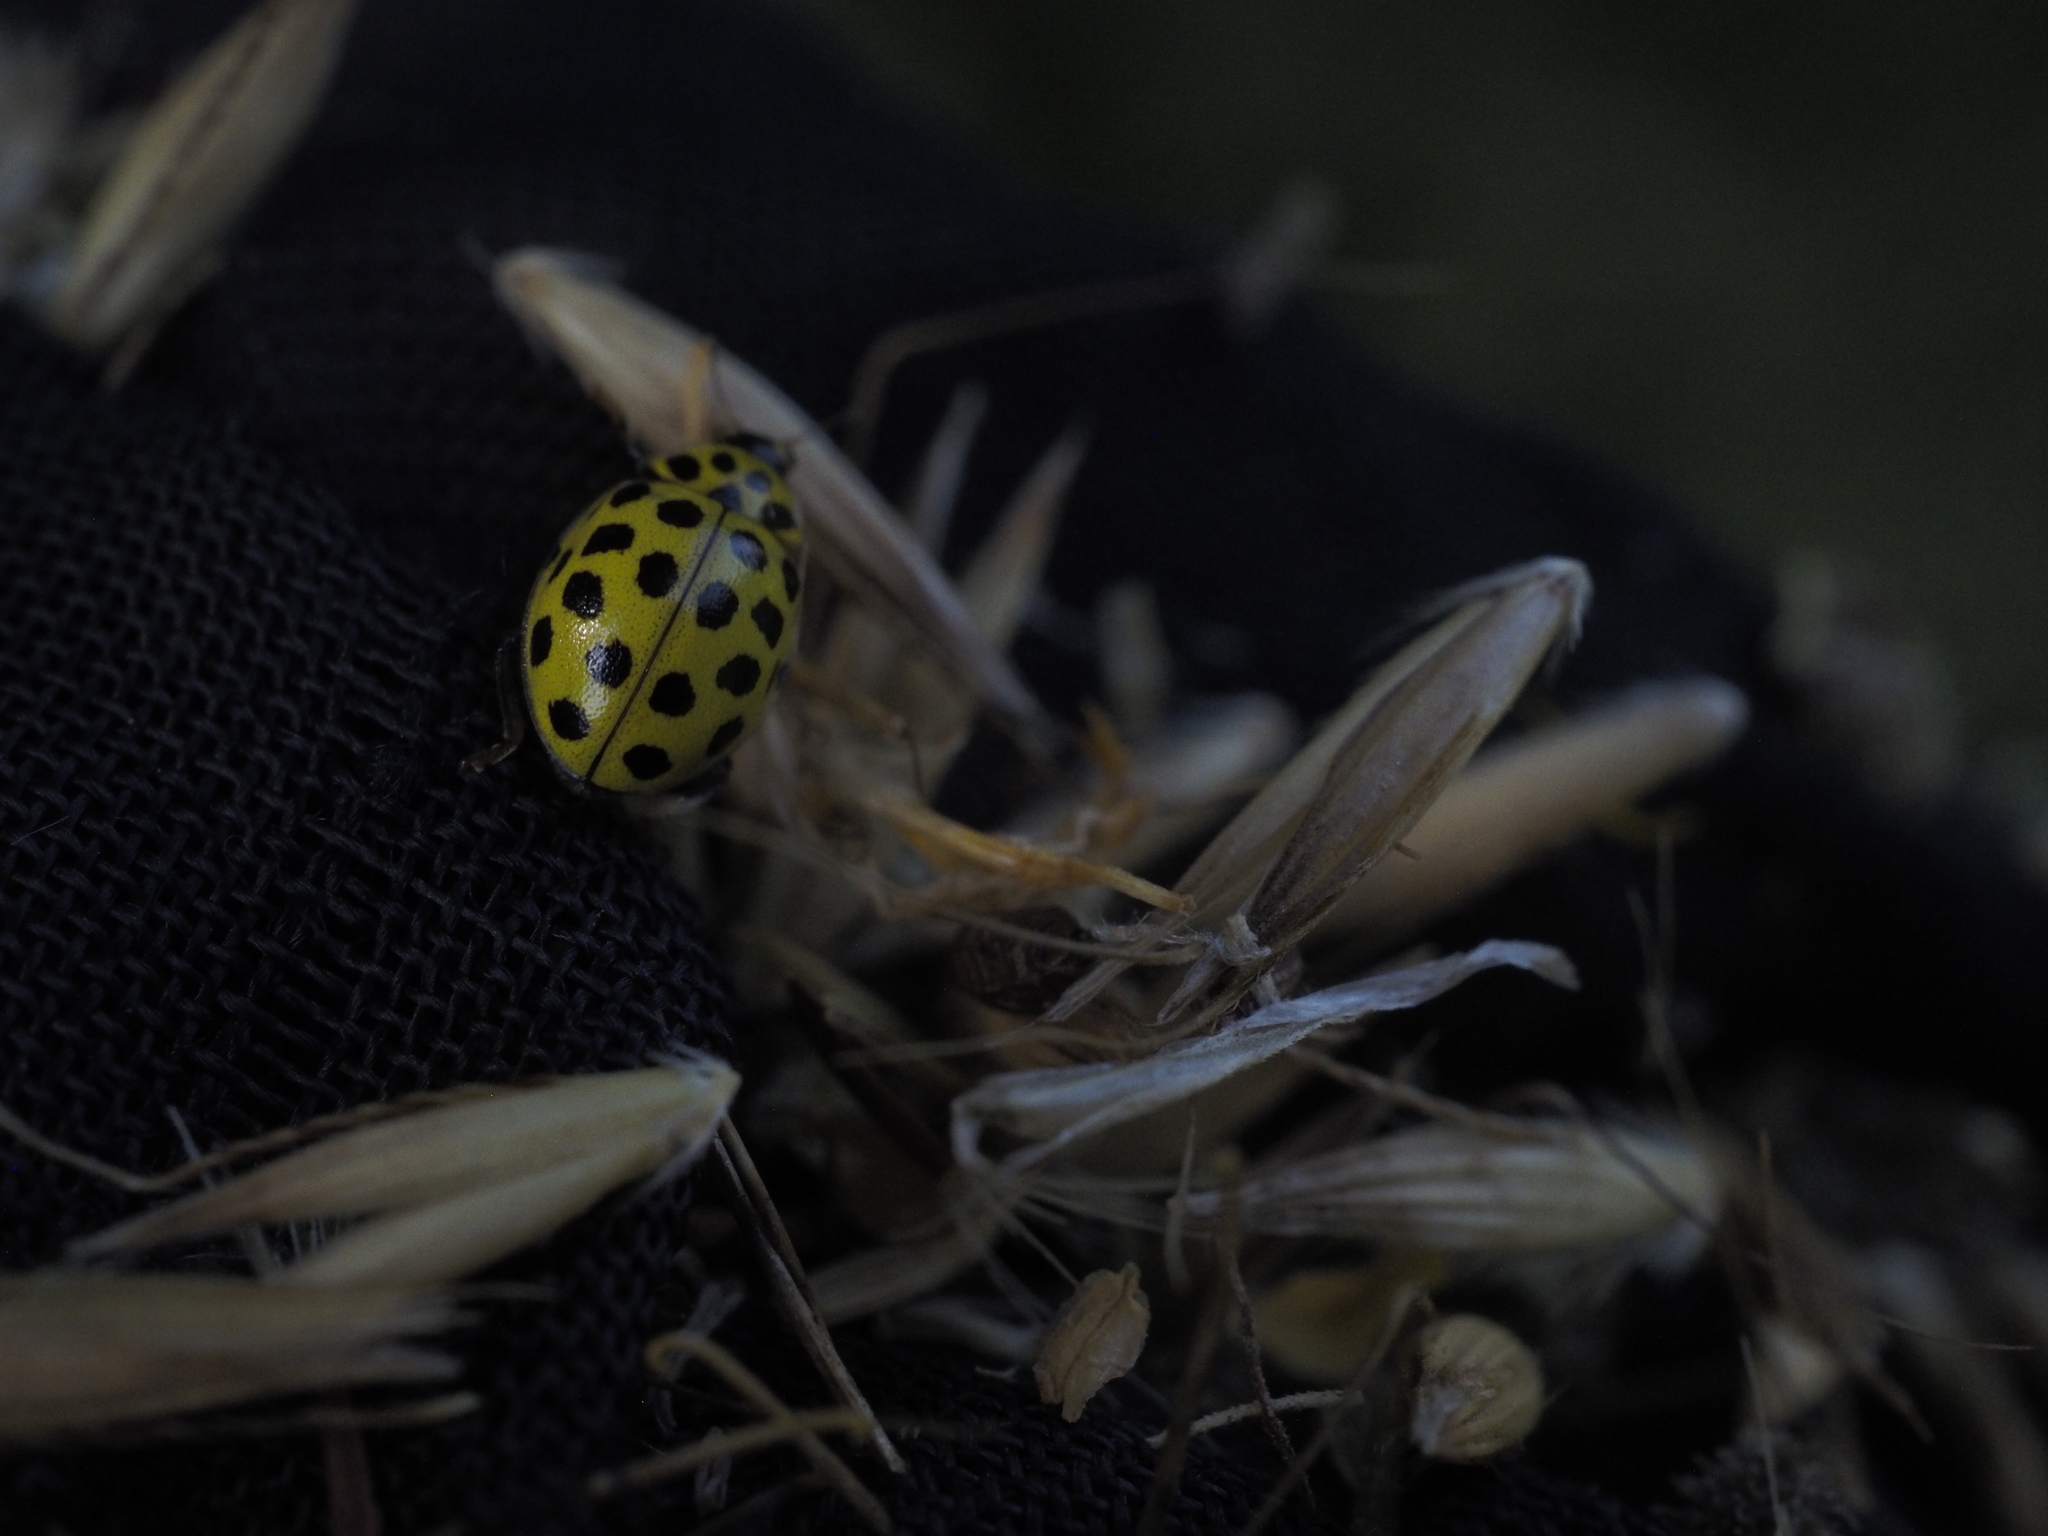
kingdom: Animalia
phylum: Arthropoda
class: Insecta
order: Coleoptera
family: Coccinellidae
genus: Psyllobora
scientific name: Psyllobora vigintiduopunctata
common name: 22-spot ladybird
